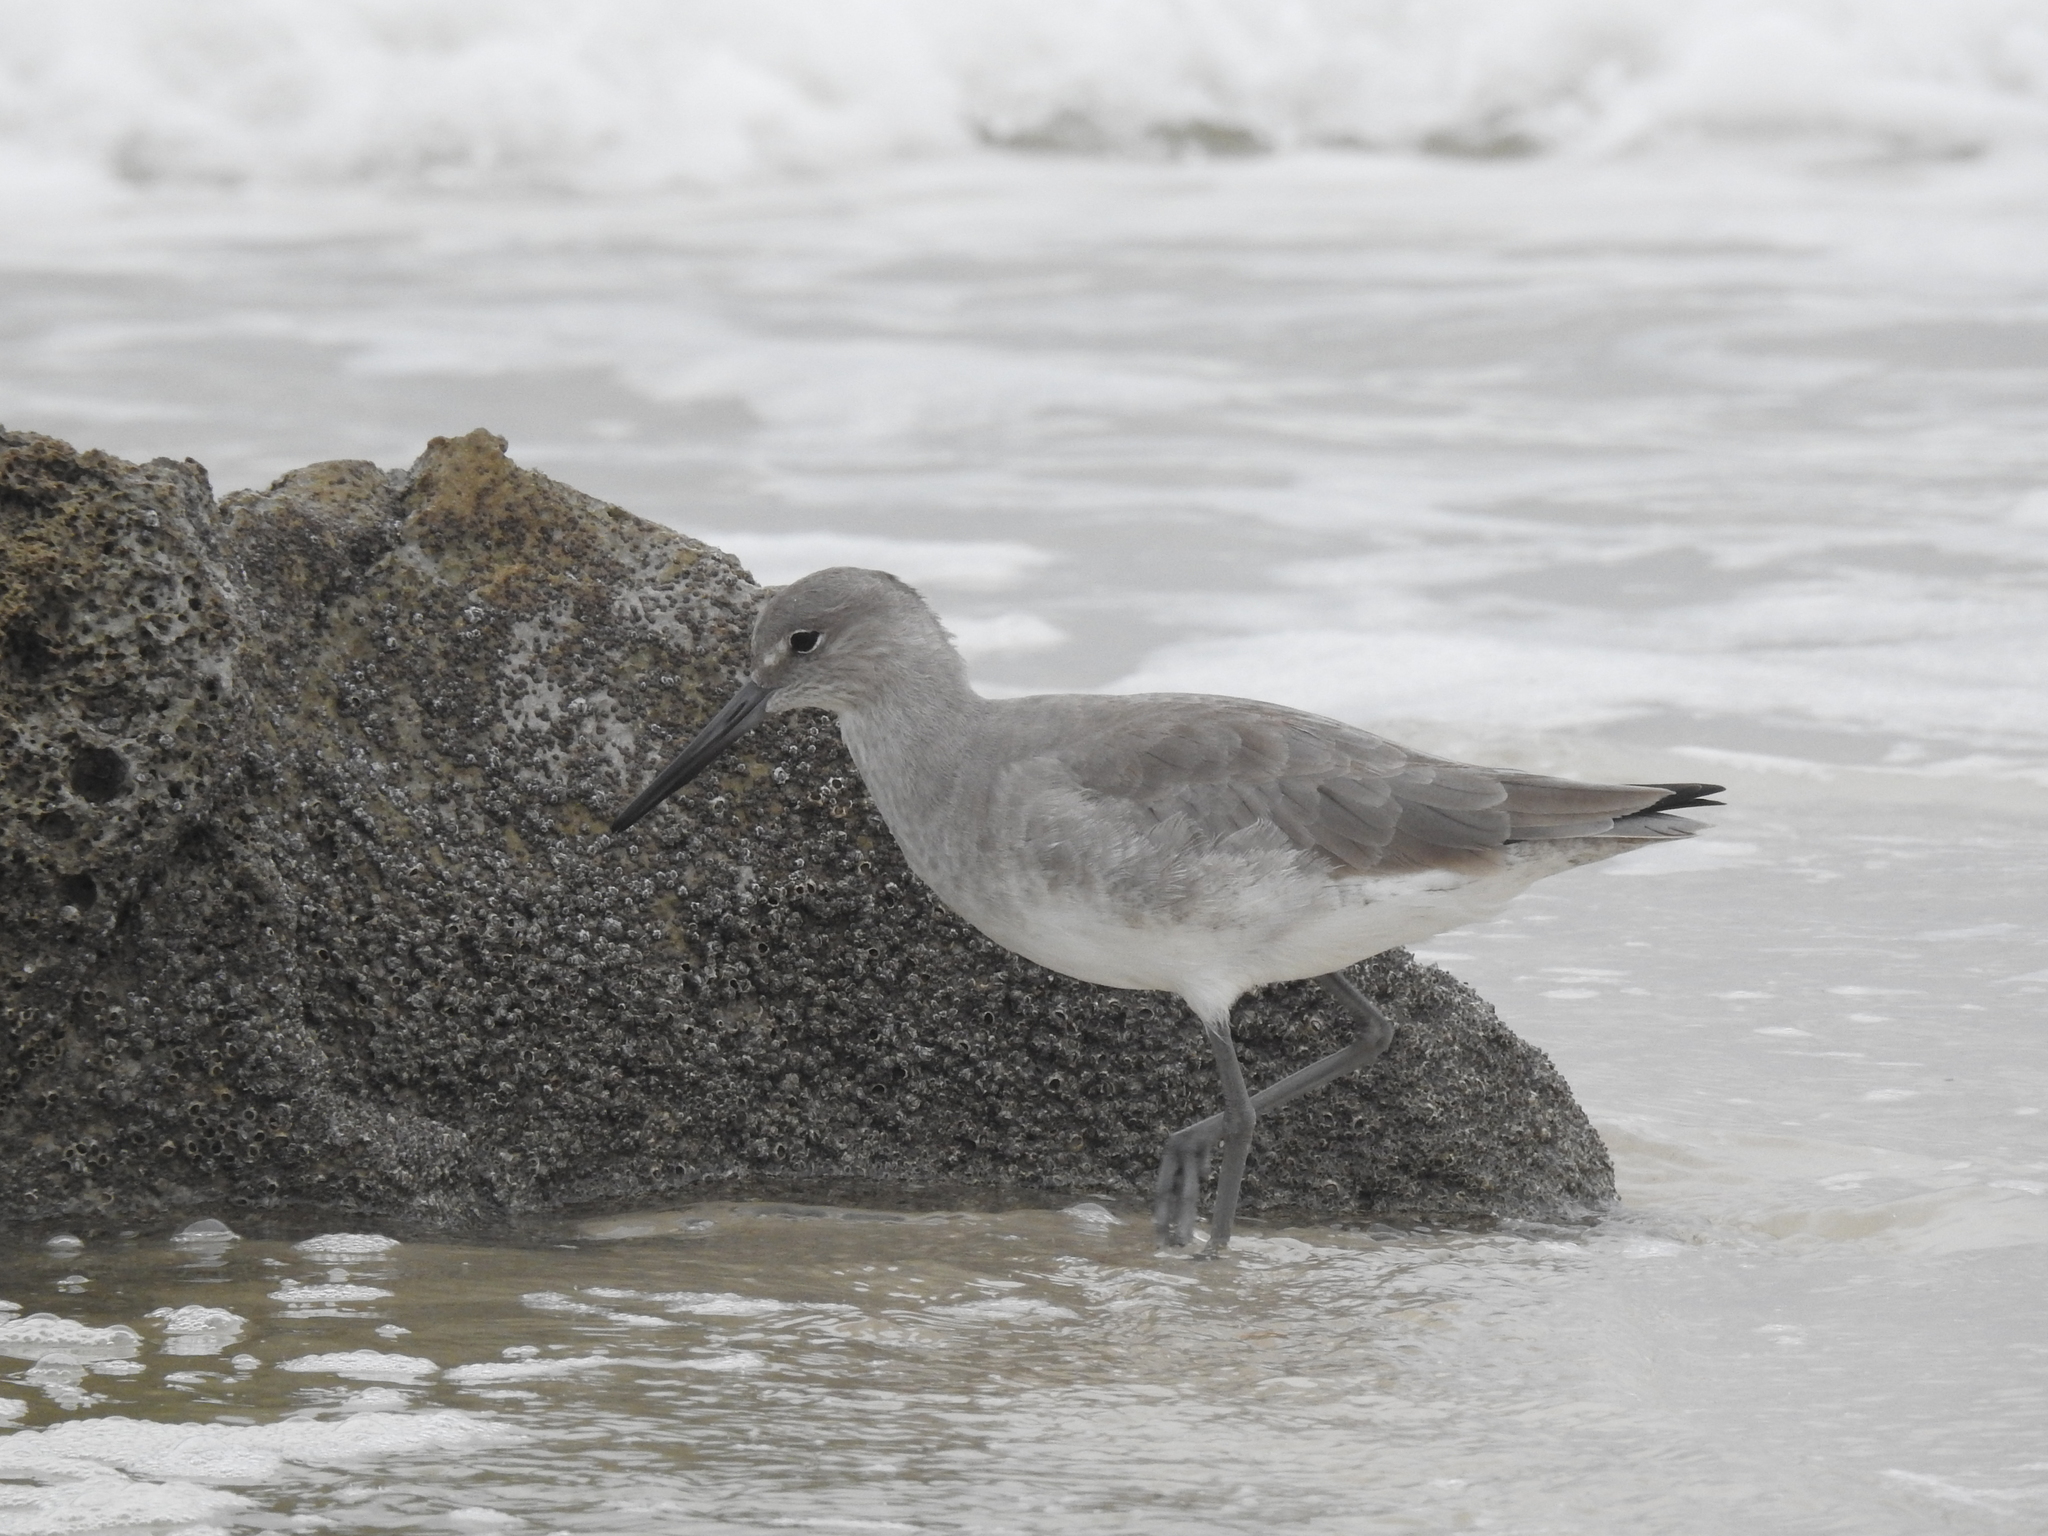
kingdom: Animalia
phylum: Chordata
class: Aves
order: Charadriiformes
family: Scolopacidae
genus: Tringa
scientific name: Tringa semipalmata
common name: Willet
